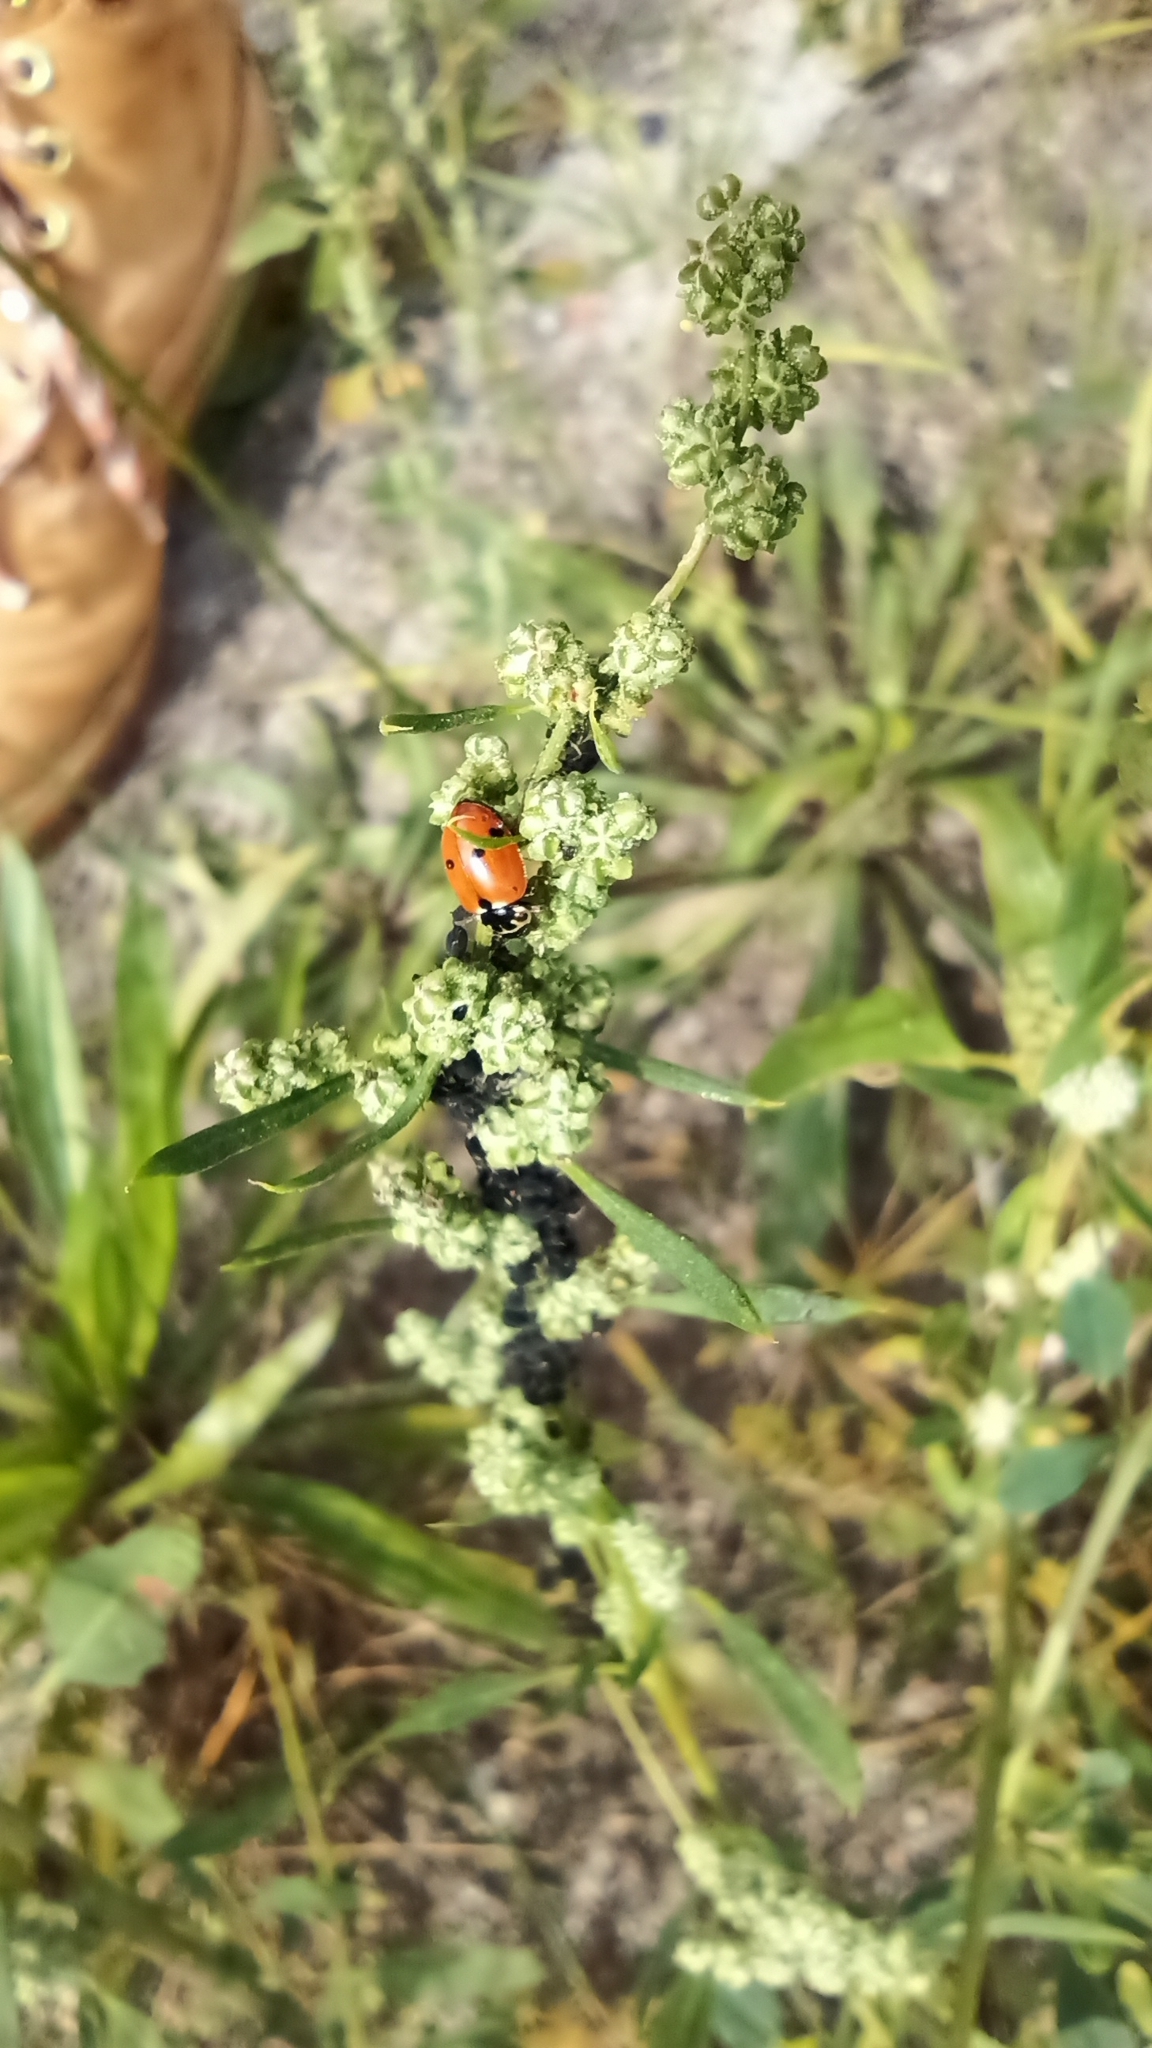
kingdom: Animalia
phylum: Arthropoda
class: Insecta
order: Coleoptera
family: Coccinellidae
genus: Hippodamia
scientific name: Hippodamia variegata
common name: Ladybird beetle
